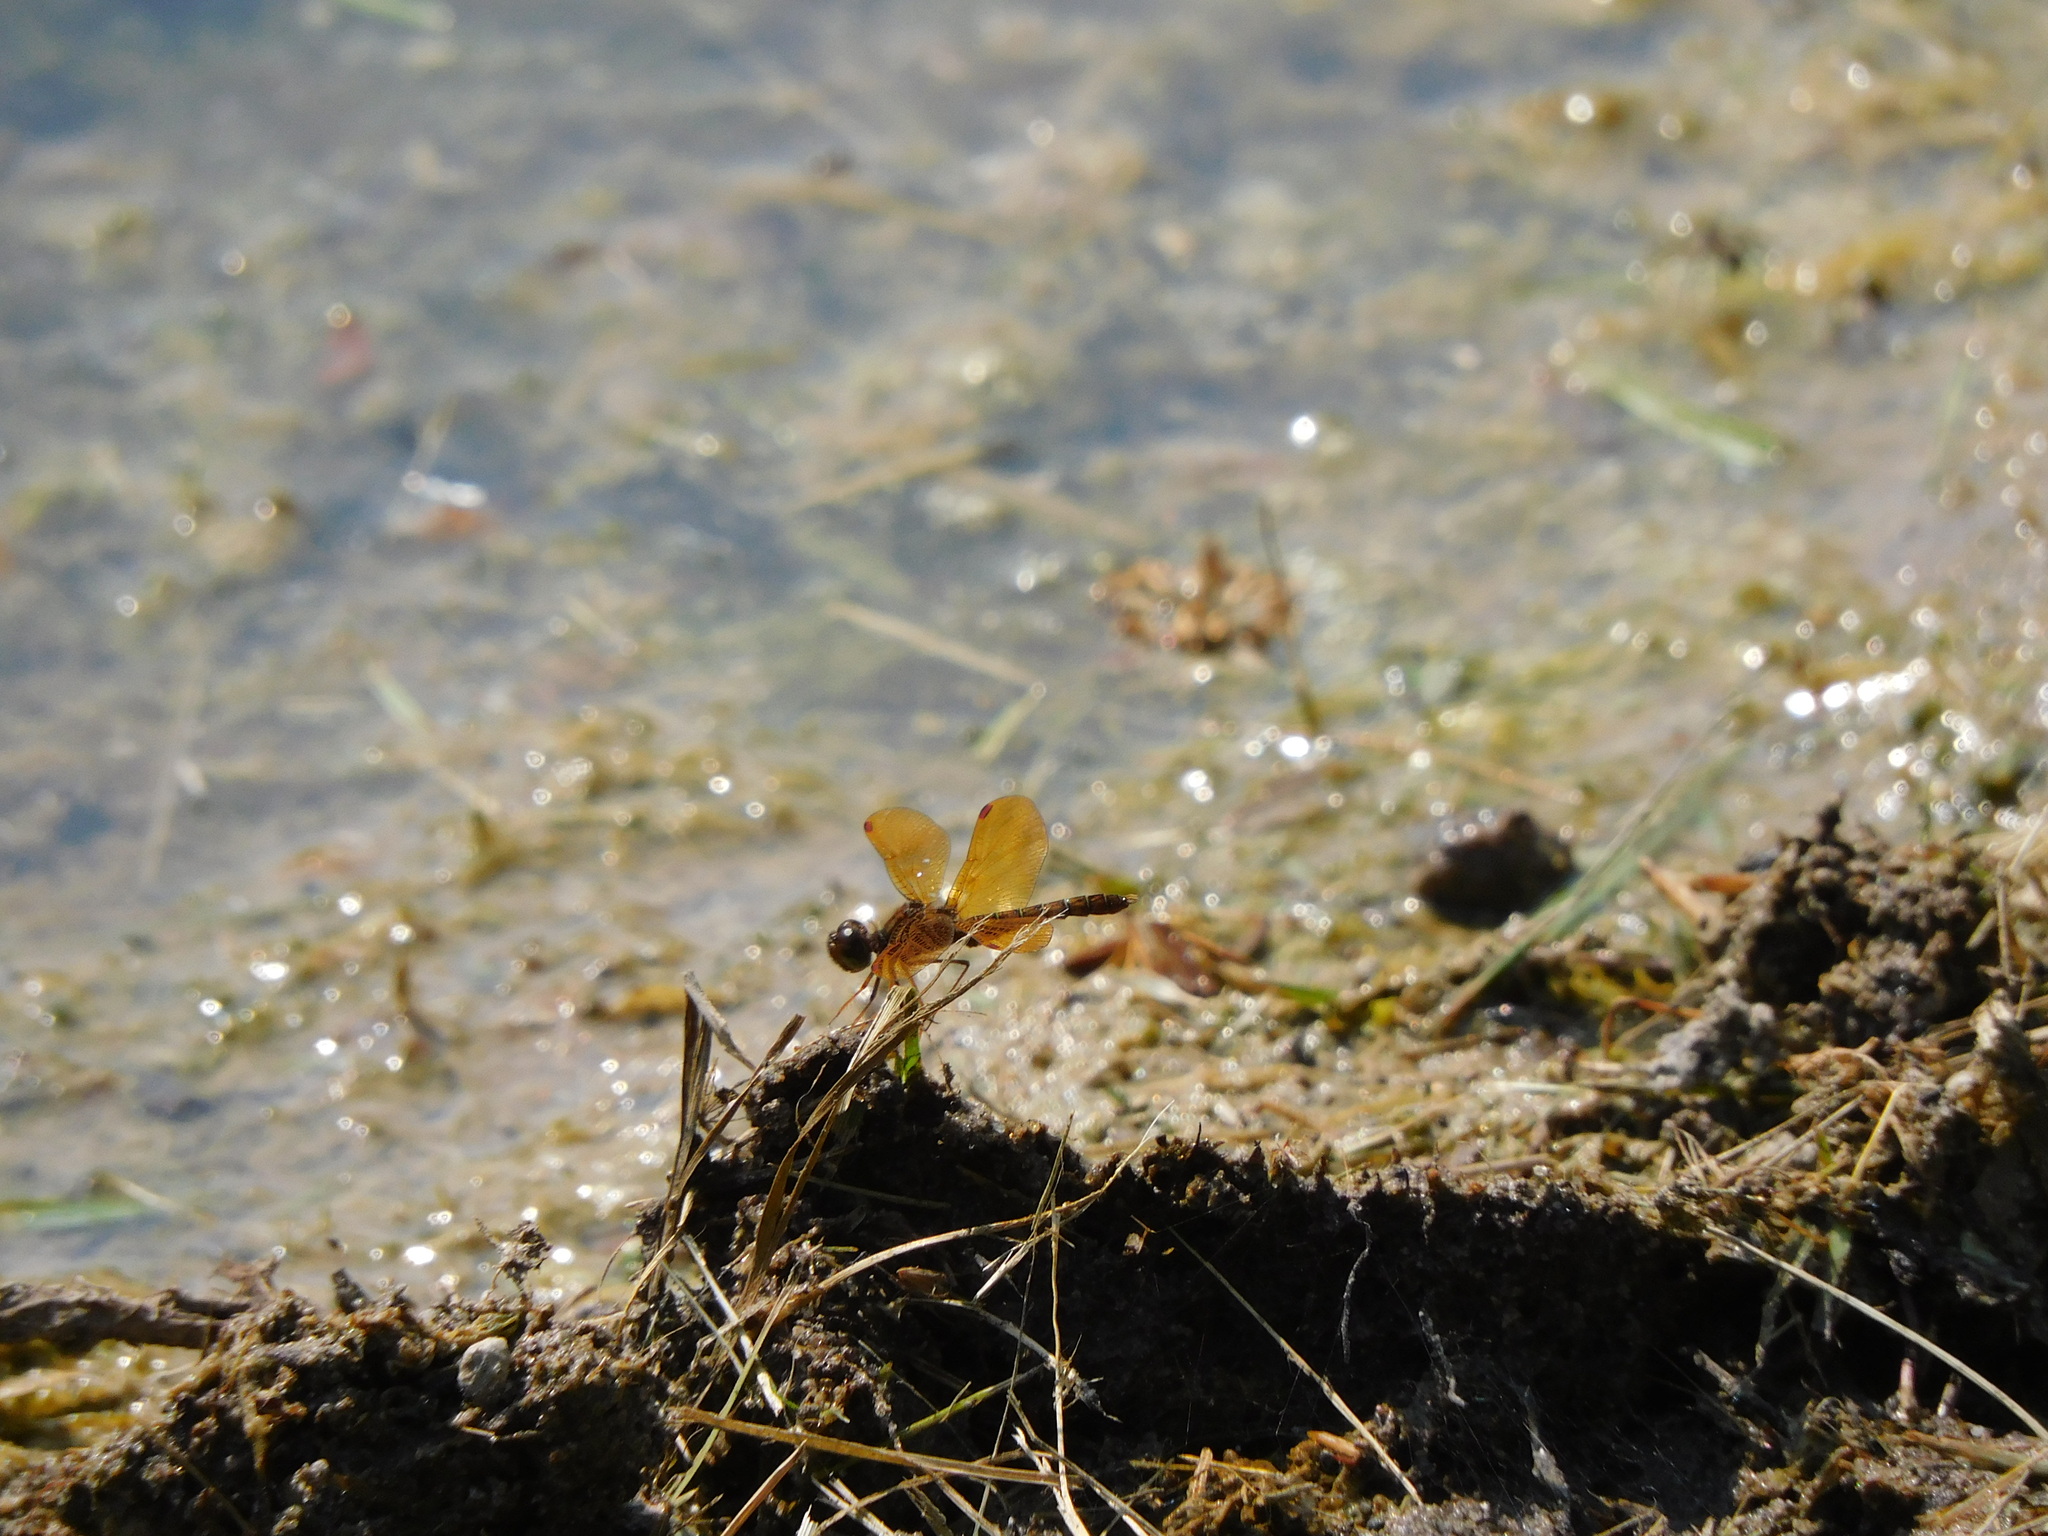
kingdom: Animalia
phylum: Arthropoda
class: Insecta
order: Odonata
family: Libellulidae
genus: Perithemis
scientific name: Perithemis tenera
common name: Eastern amberwing
